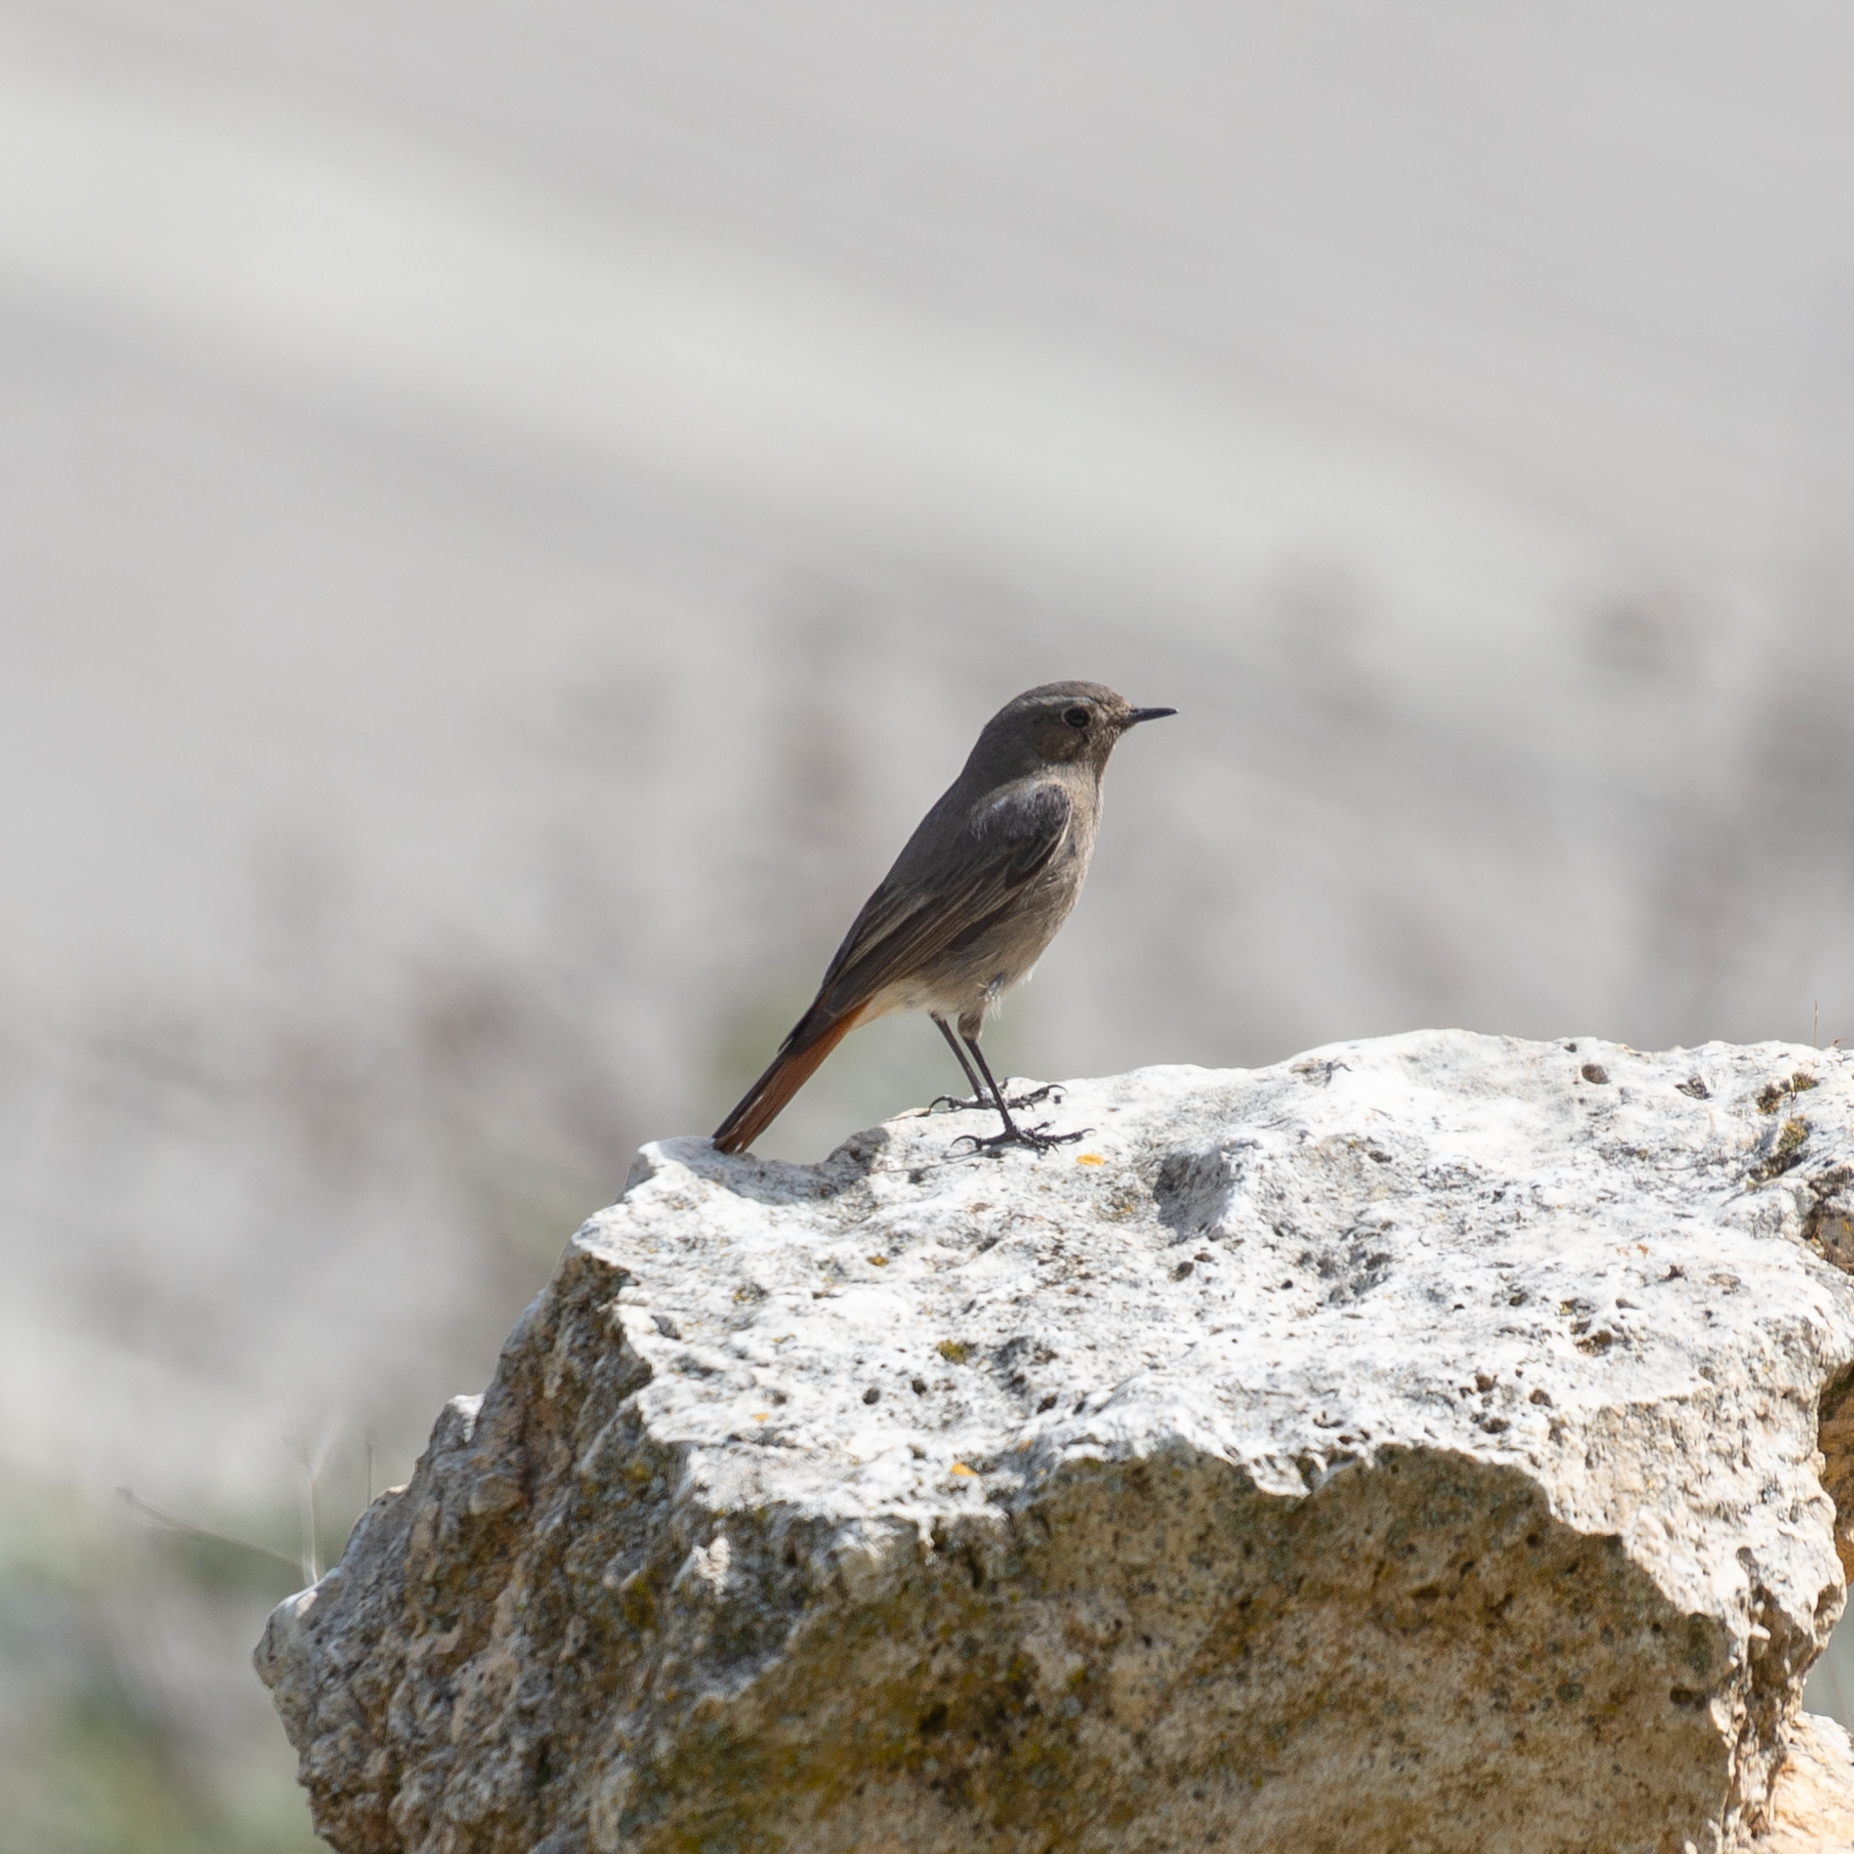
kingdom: Animalia
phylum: Chordata
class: Aves
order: Passeriformes
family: Muscicapidae
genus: Phoenicurus
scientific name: Phoenicurus ochruros
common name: Black redstart
